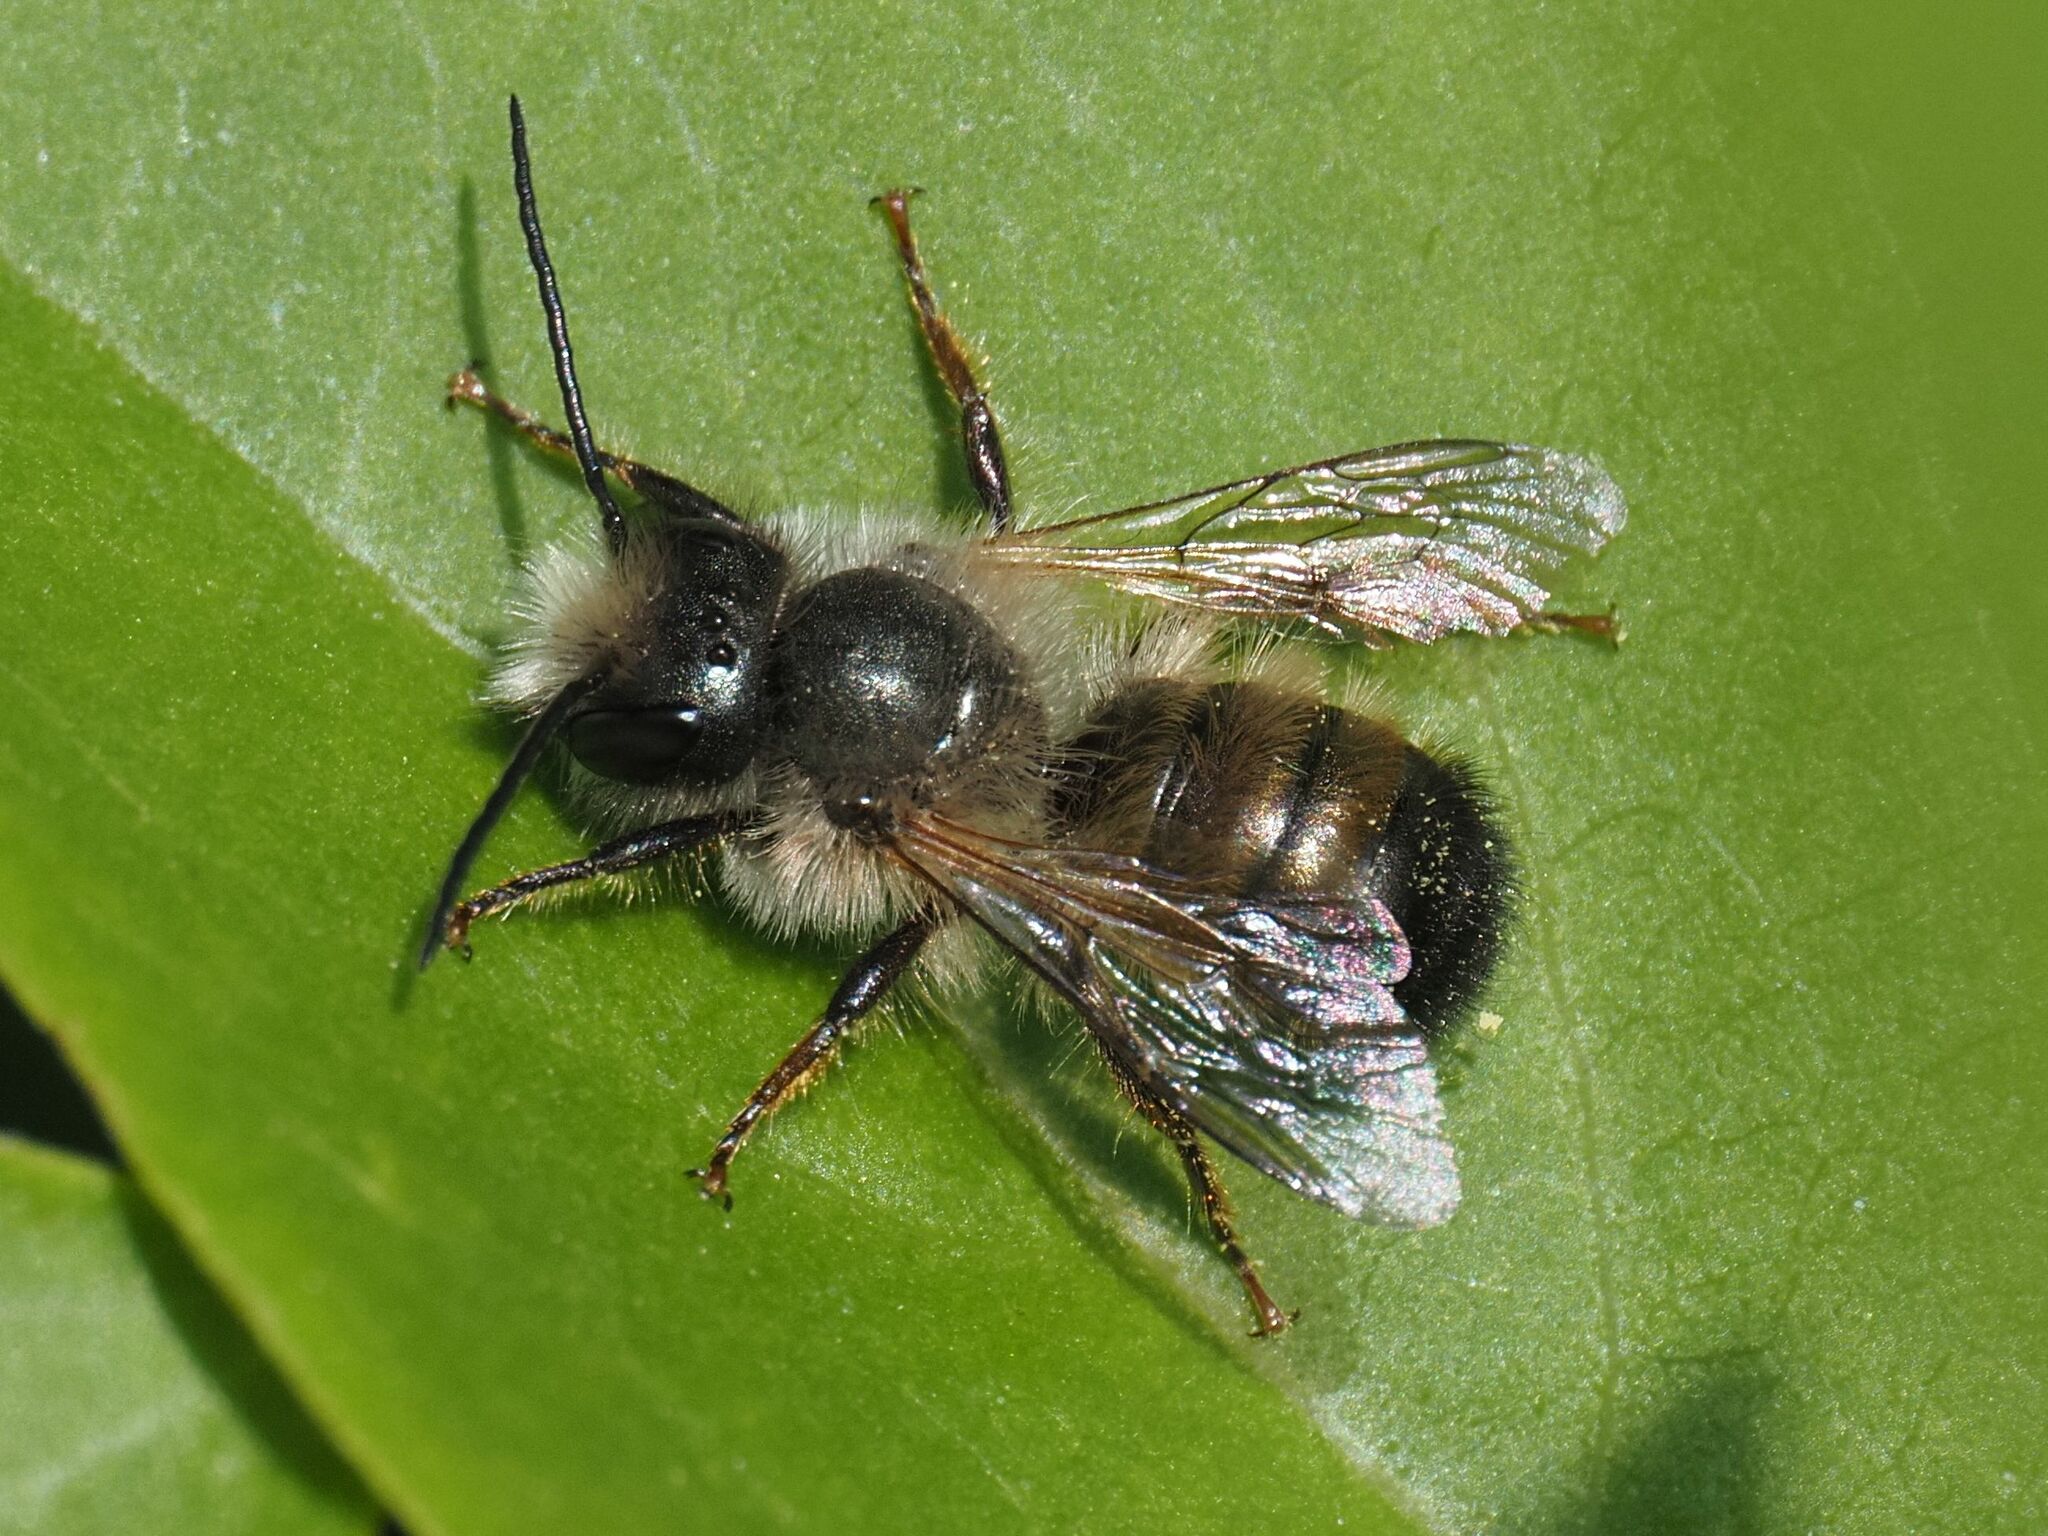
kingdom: Animalia
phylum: Arthropoda
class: Insecta
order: Hymenoptera
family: Megachilidae
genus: Osmia
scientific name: Osmia bicornis
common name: Red mason bee
